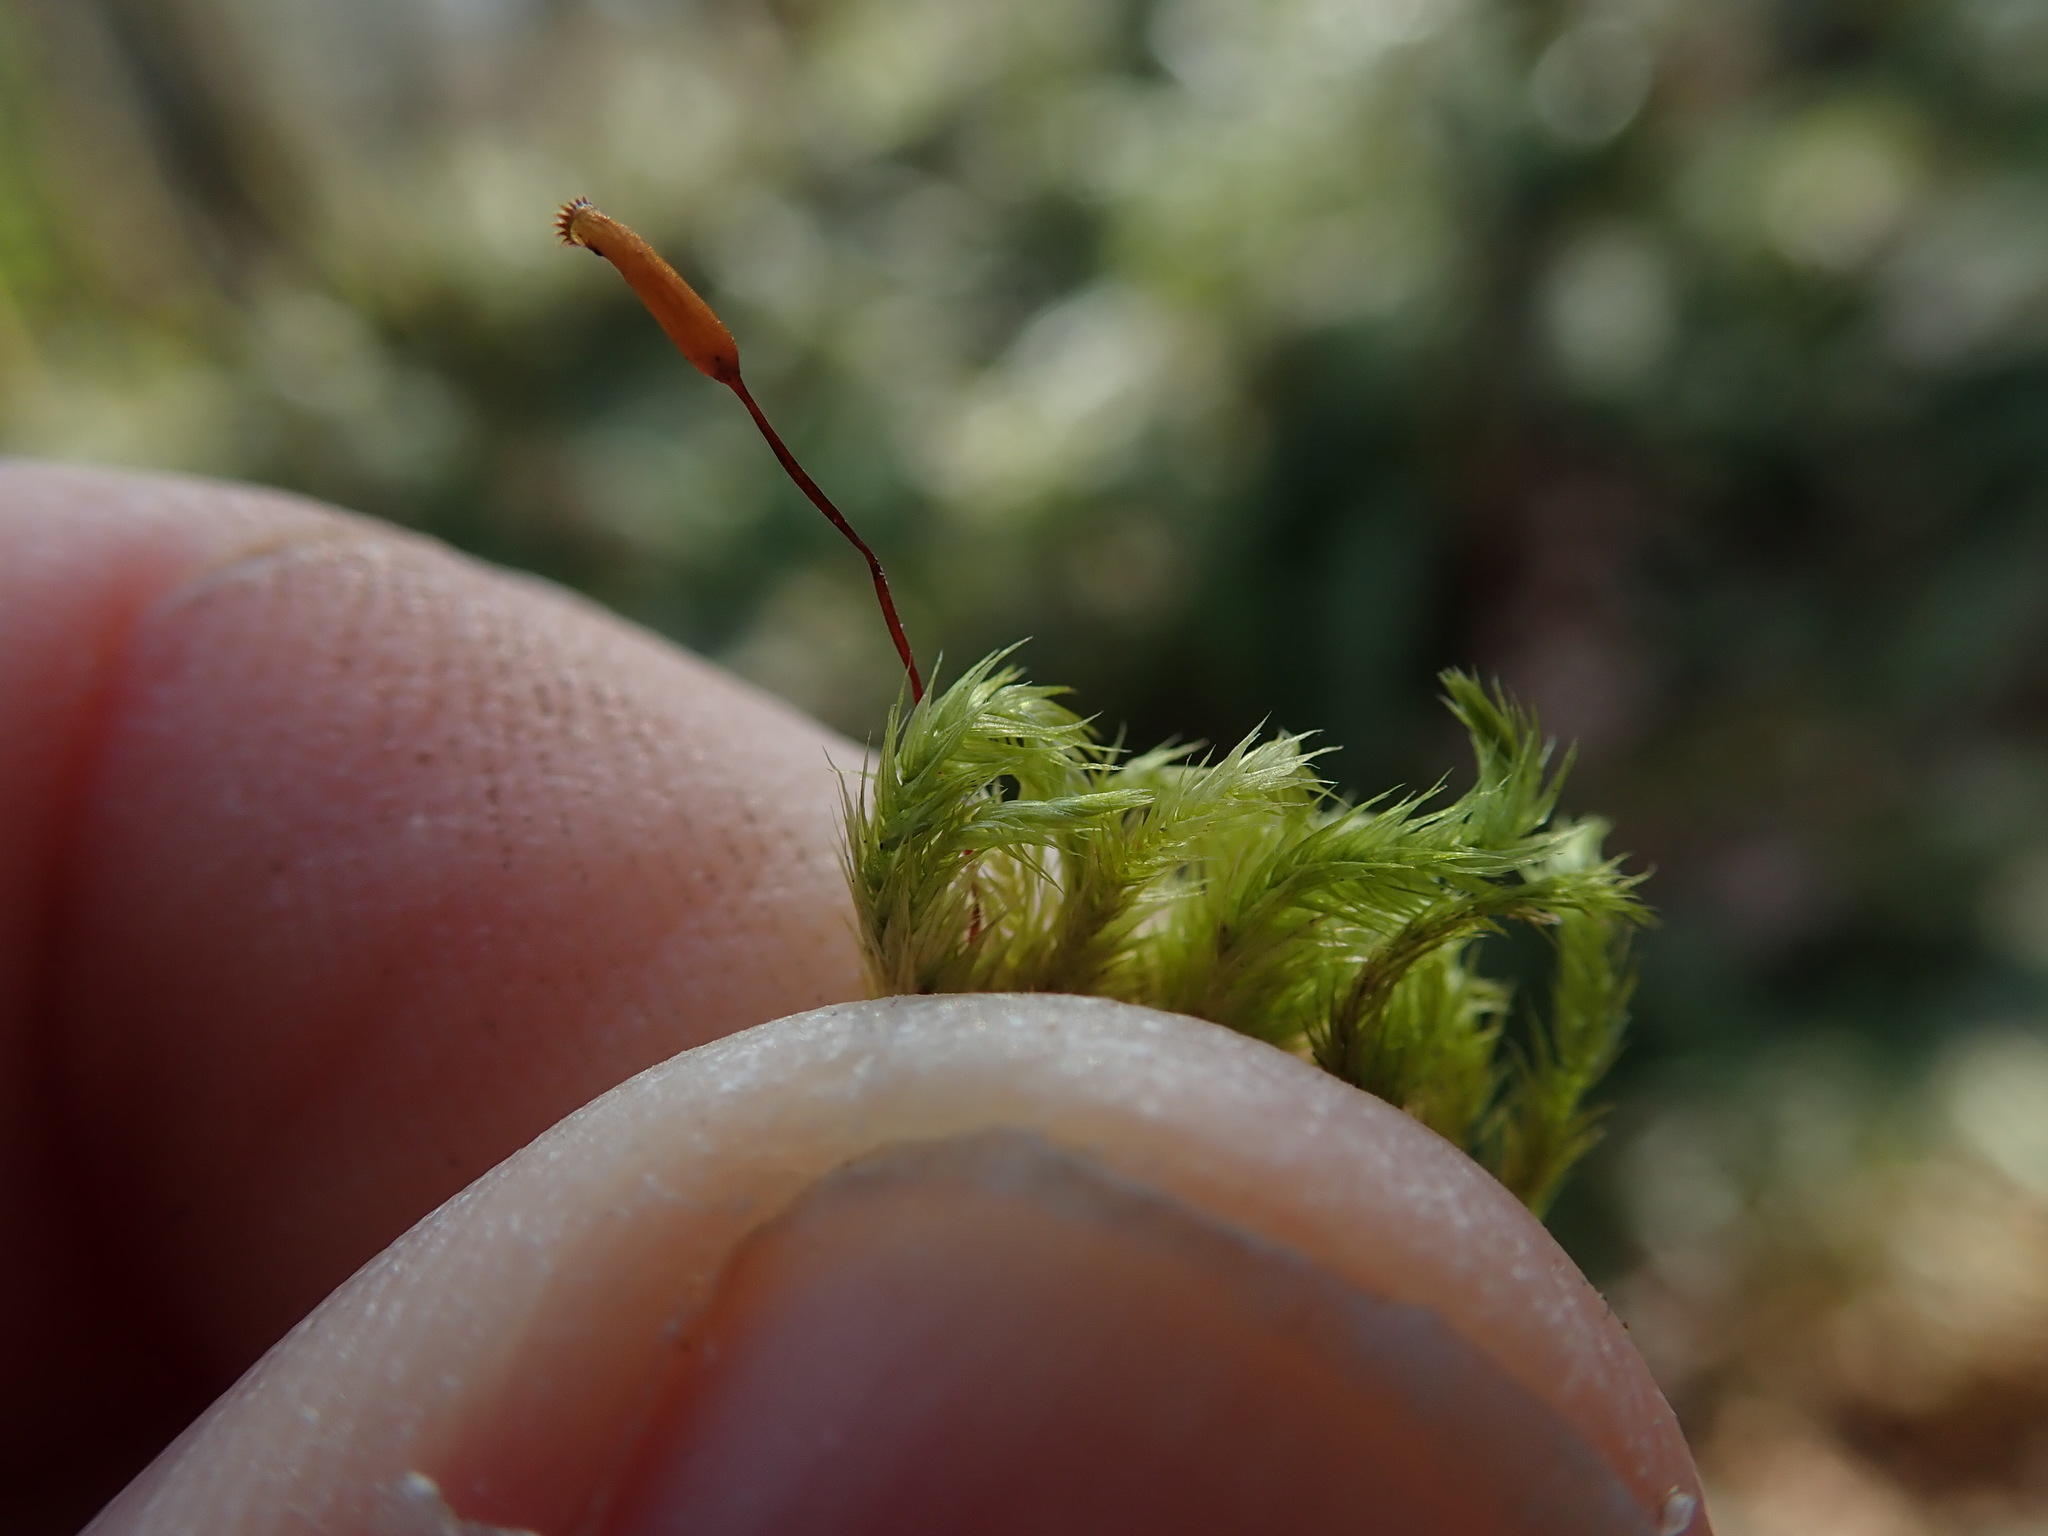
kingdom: Plantae
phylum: Bryophyta
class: Bryopsida
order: Hypnales
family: Brachytheciaceae
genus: Homalothecium
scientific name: Homalothecium fulgescens
